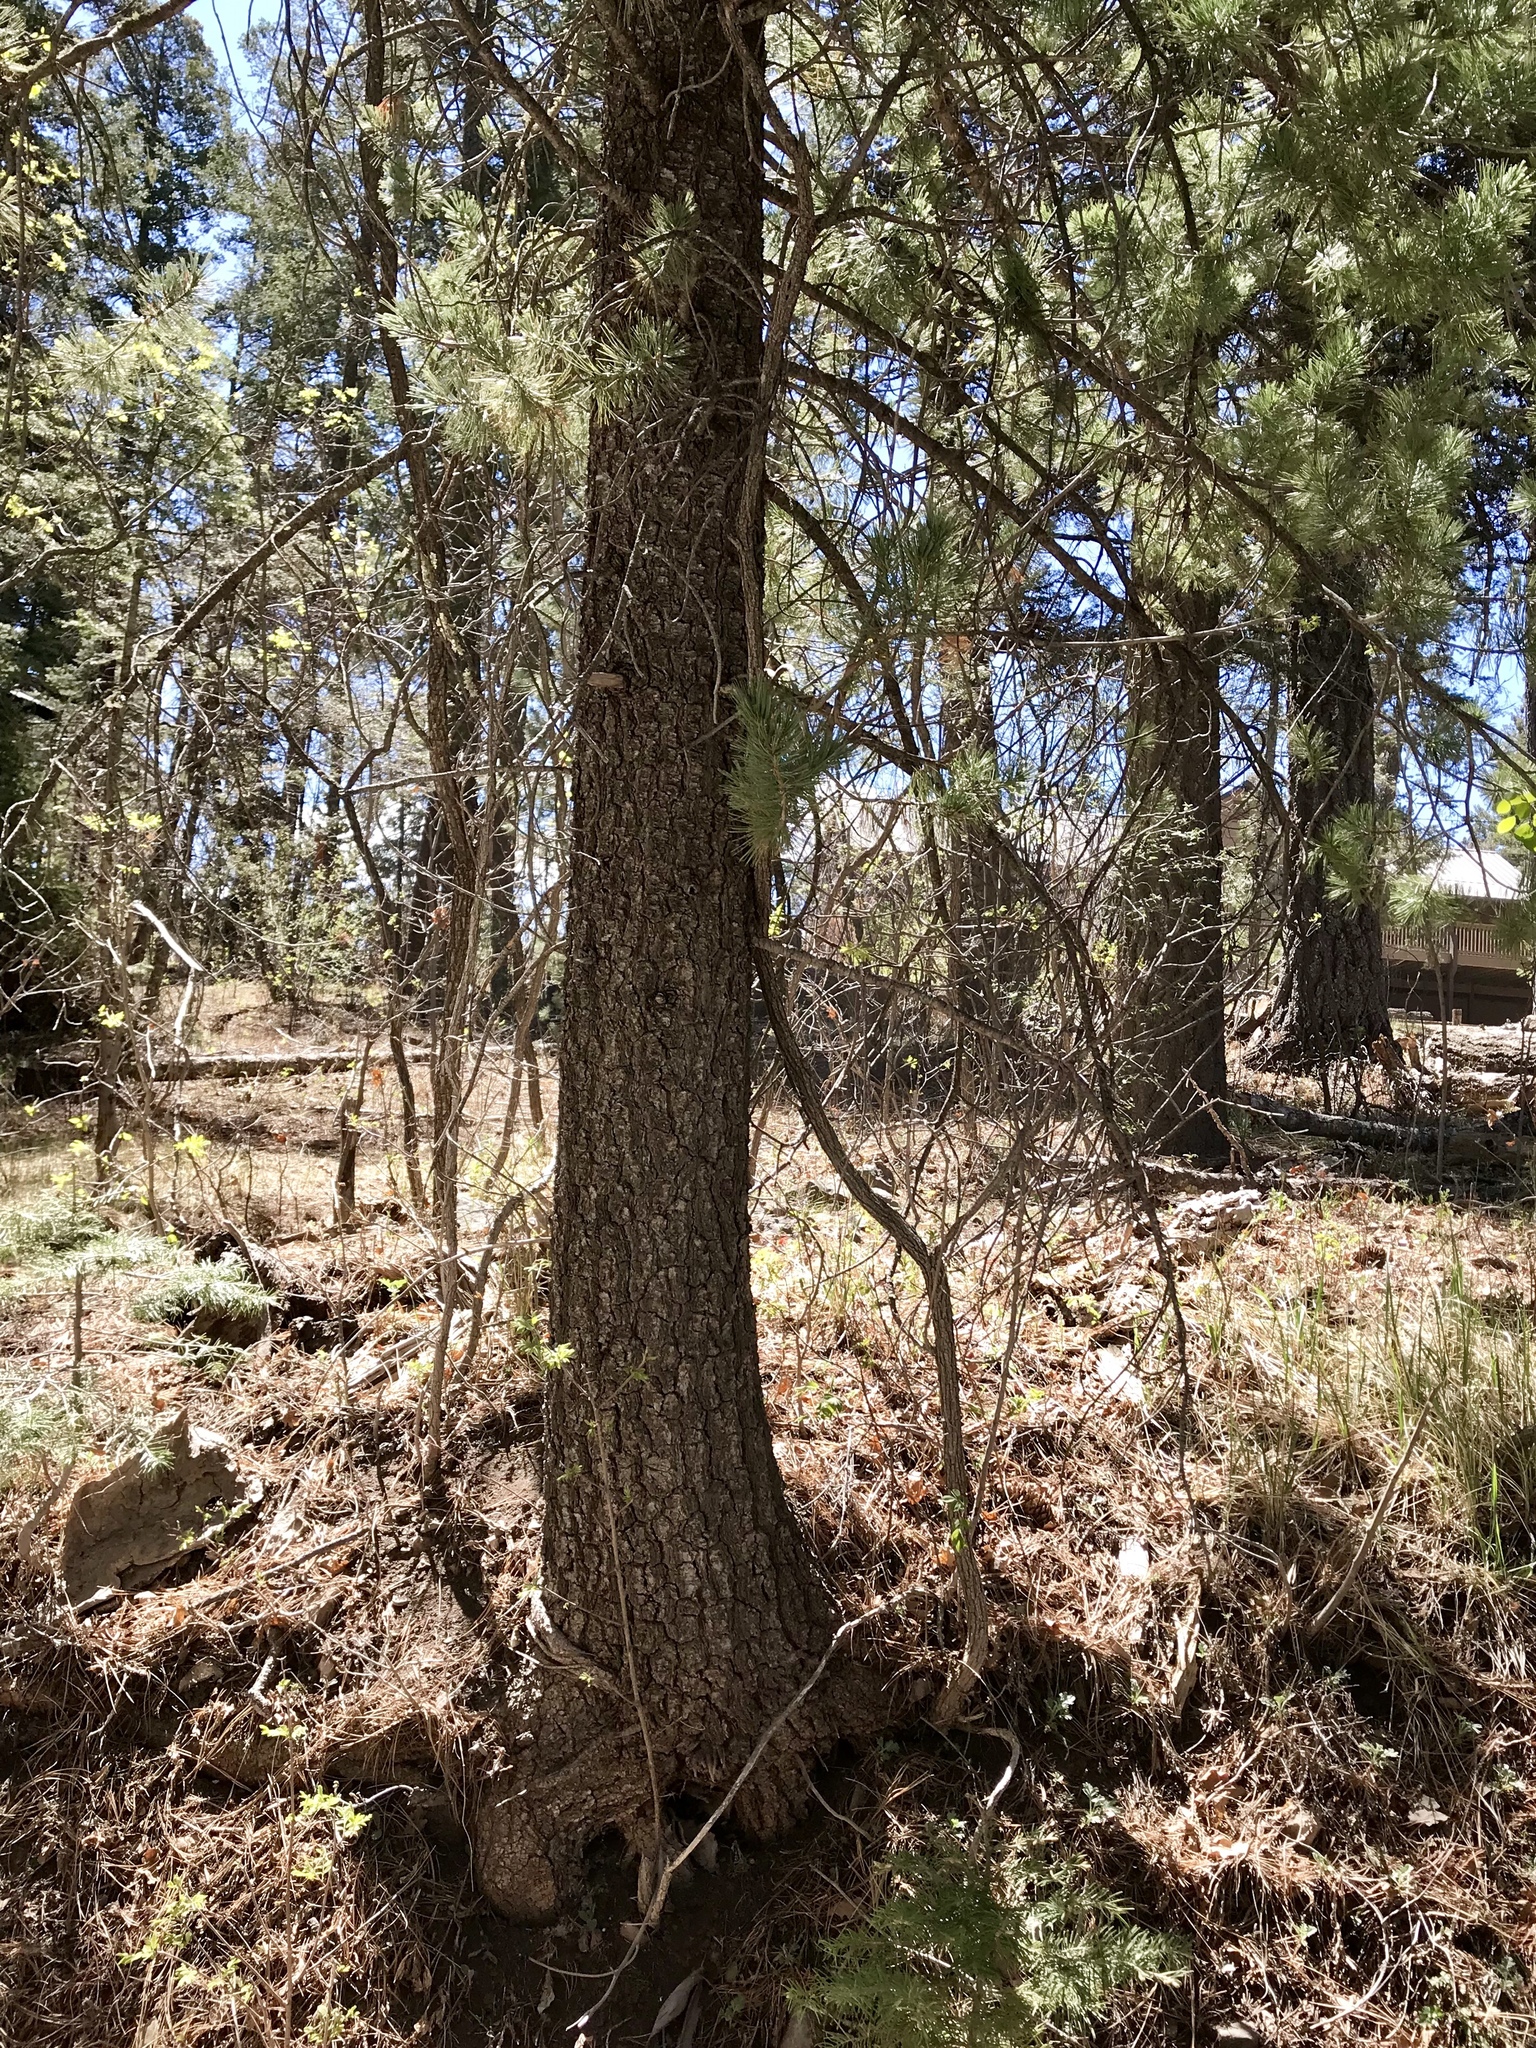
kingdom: Plantae
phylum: Tracheophyta
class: Pinopsida
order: Pinales
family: Pinaceae
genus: Pinus
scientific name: Pinus strobiformis
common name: Southwestern white pine
